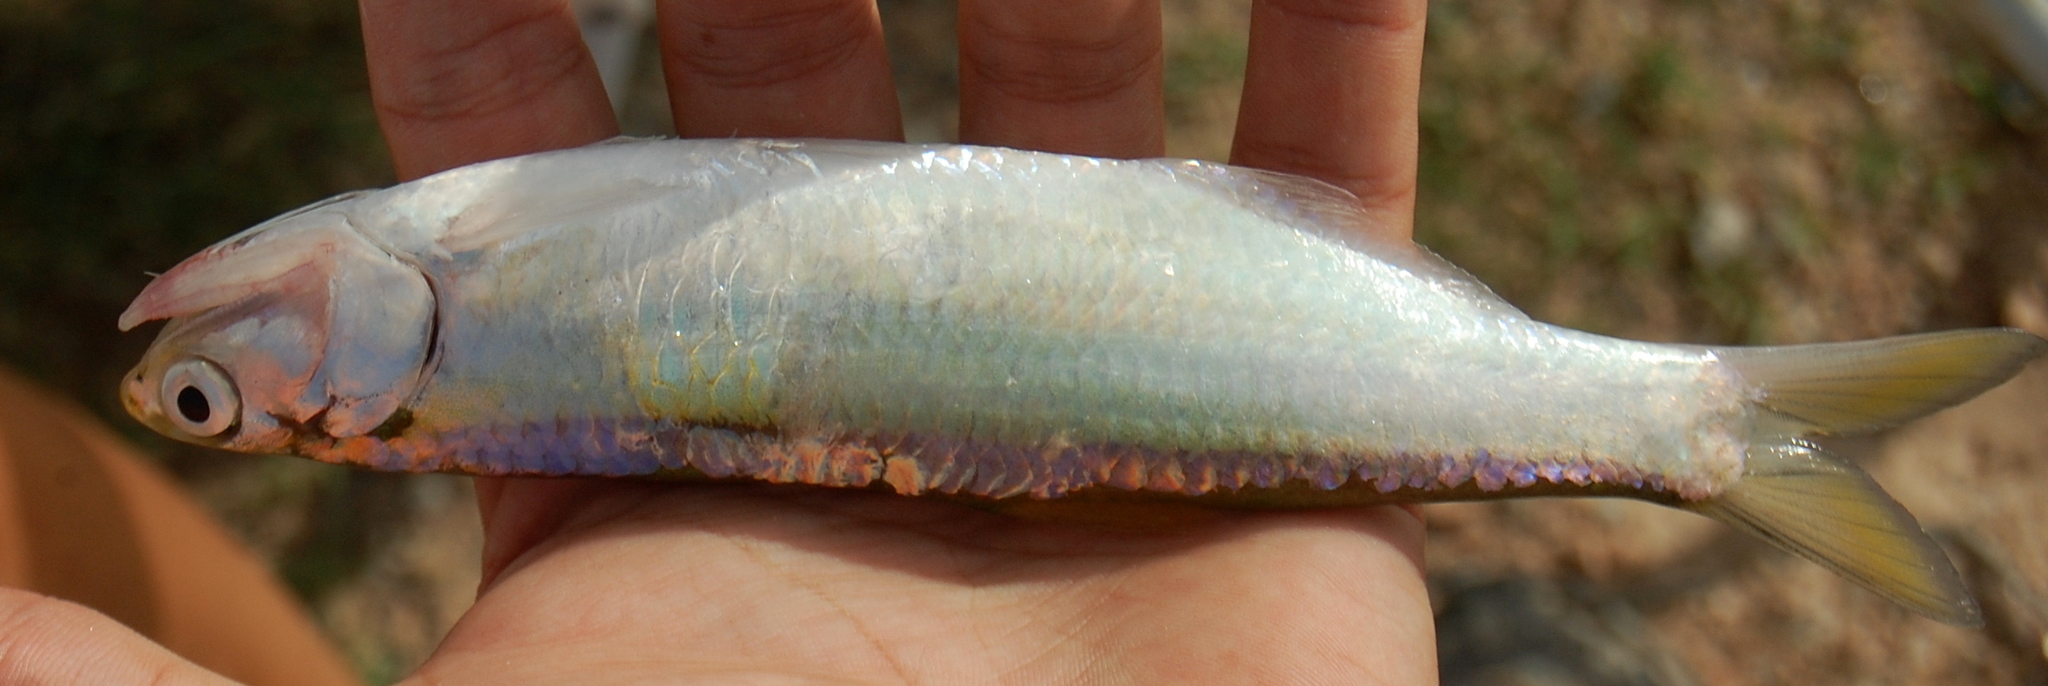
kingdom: Animalia
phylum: Chordata
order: Clupeiformes
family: Engraulidae
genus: Lycengraulis
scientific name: Lycengraulis grossidens
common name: Atlantic sabertooth anchovy
